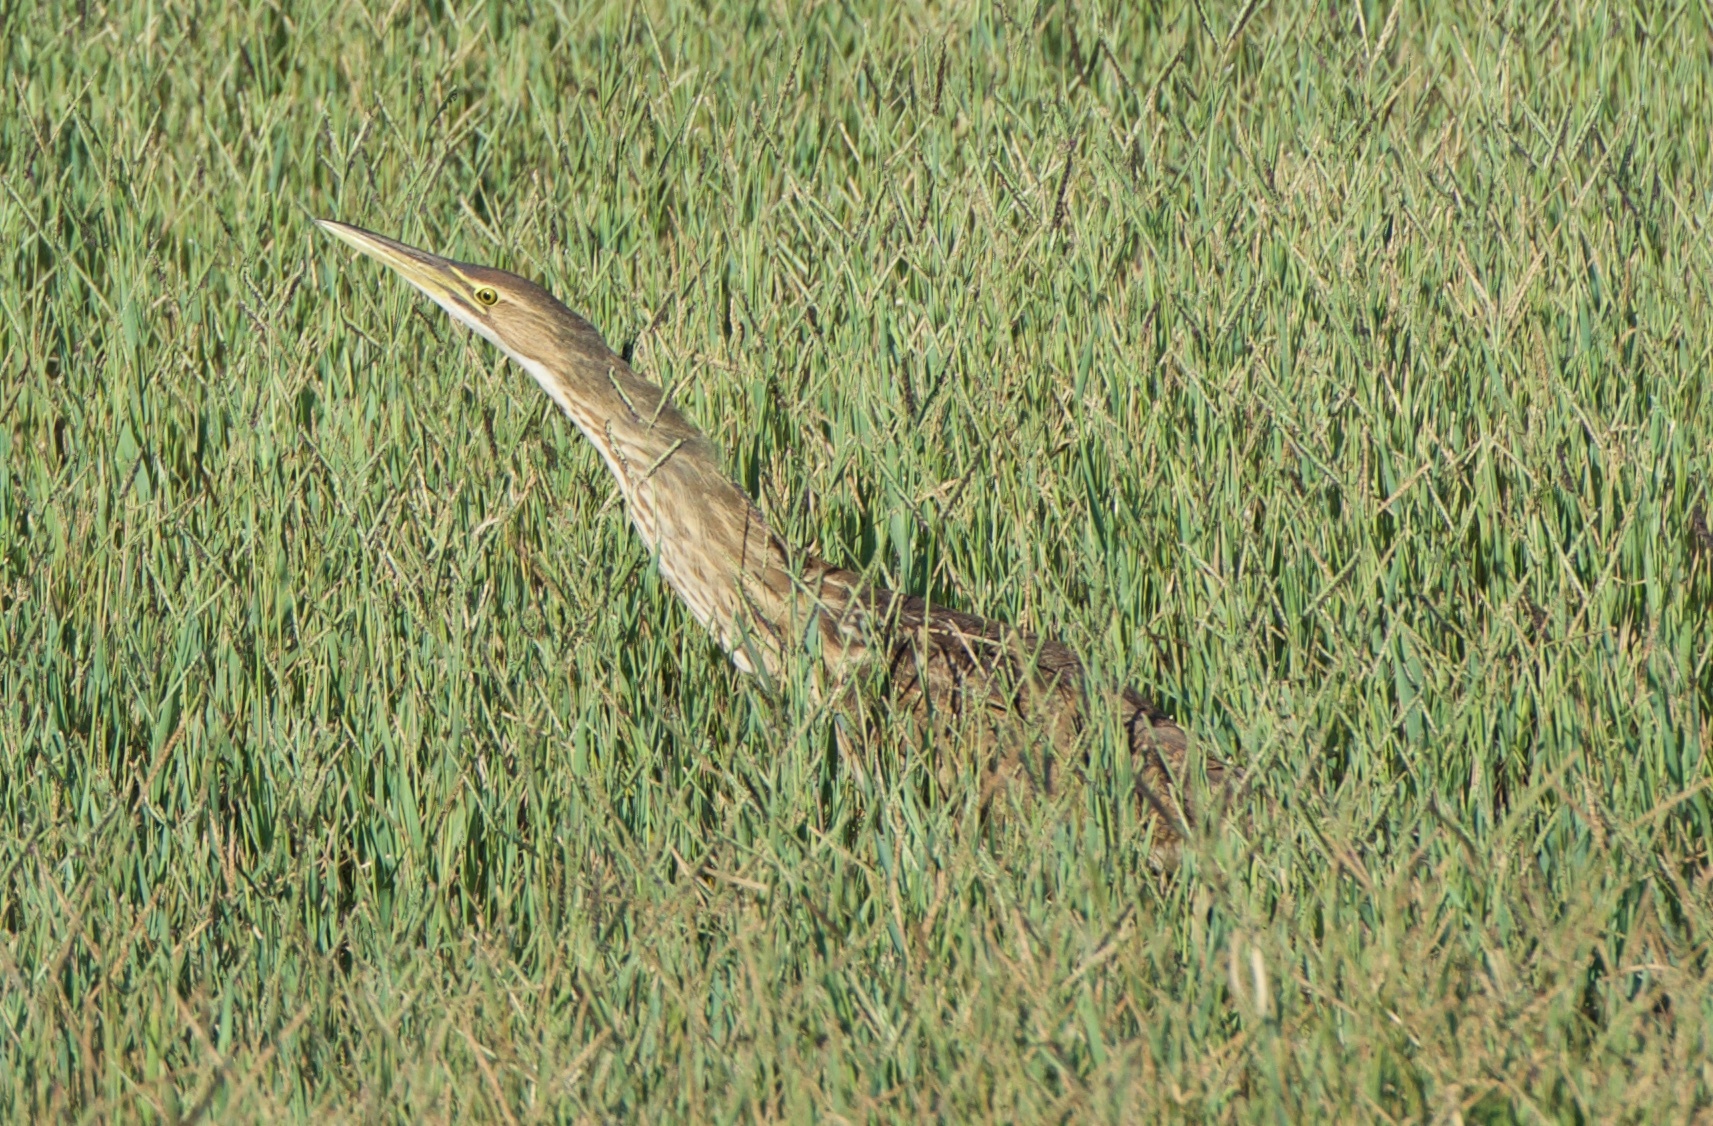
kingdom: Animalia
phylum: Chordata
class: Aves
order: Pelecaniformes
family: Ardeidae
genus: Botaurus
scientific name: Botaurus lentiginosus
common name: American bittern
